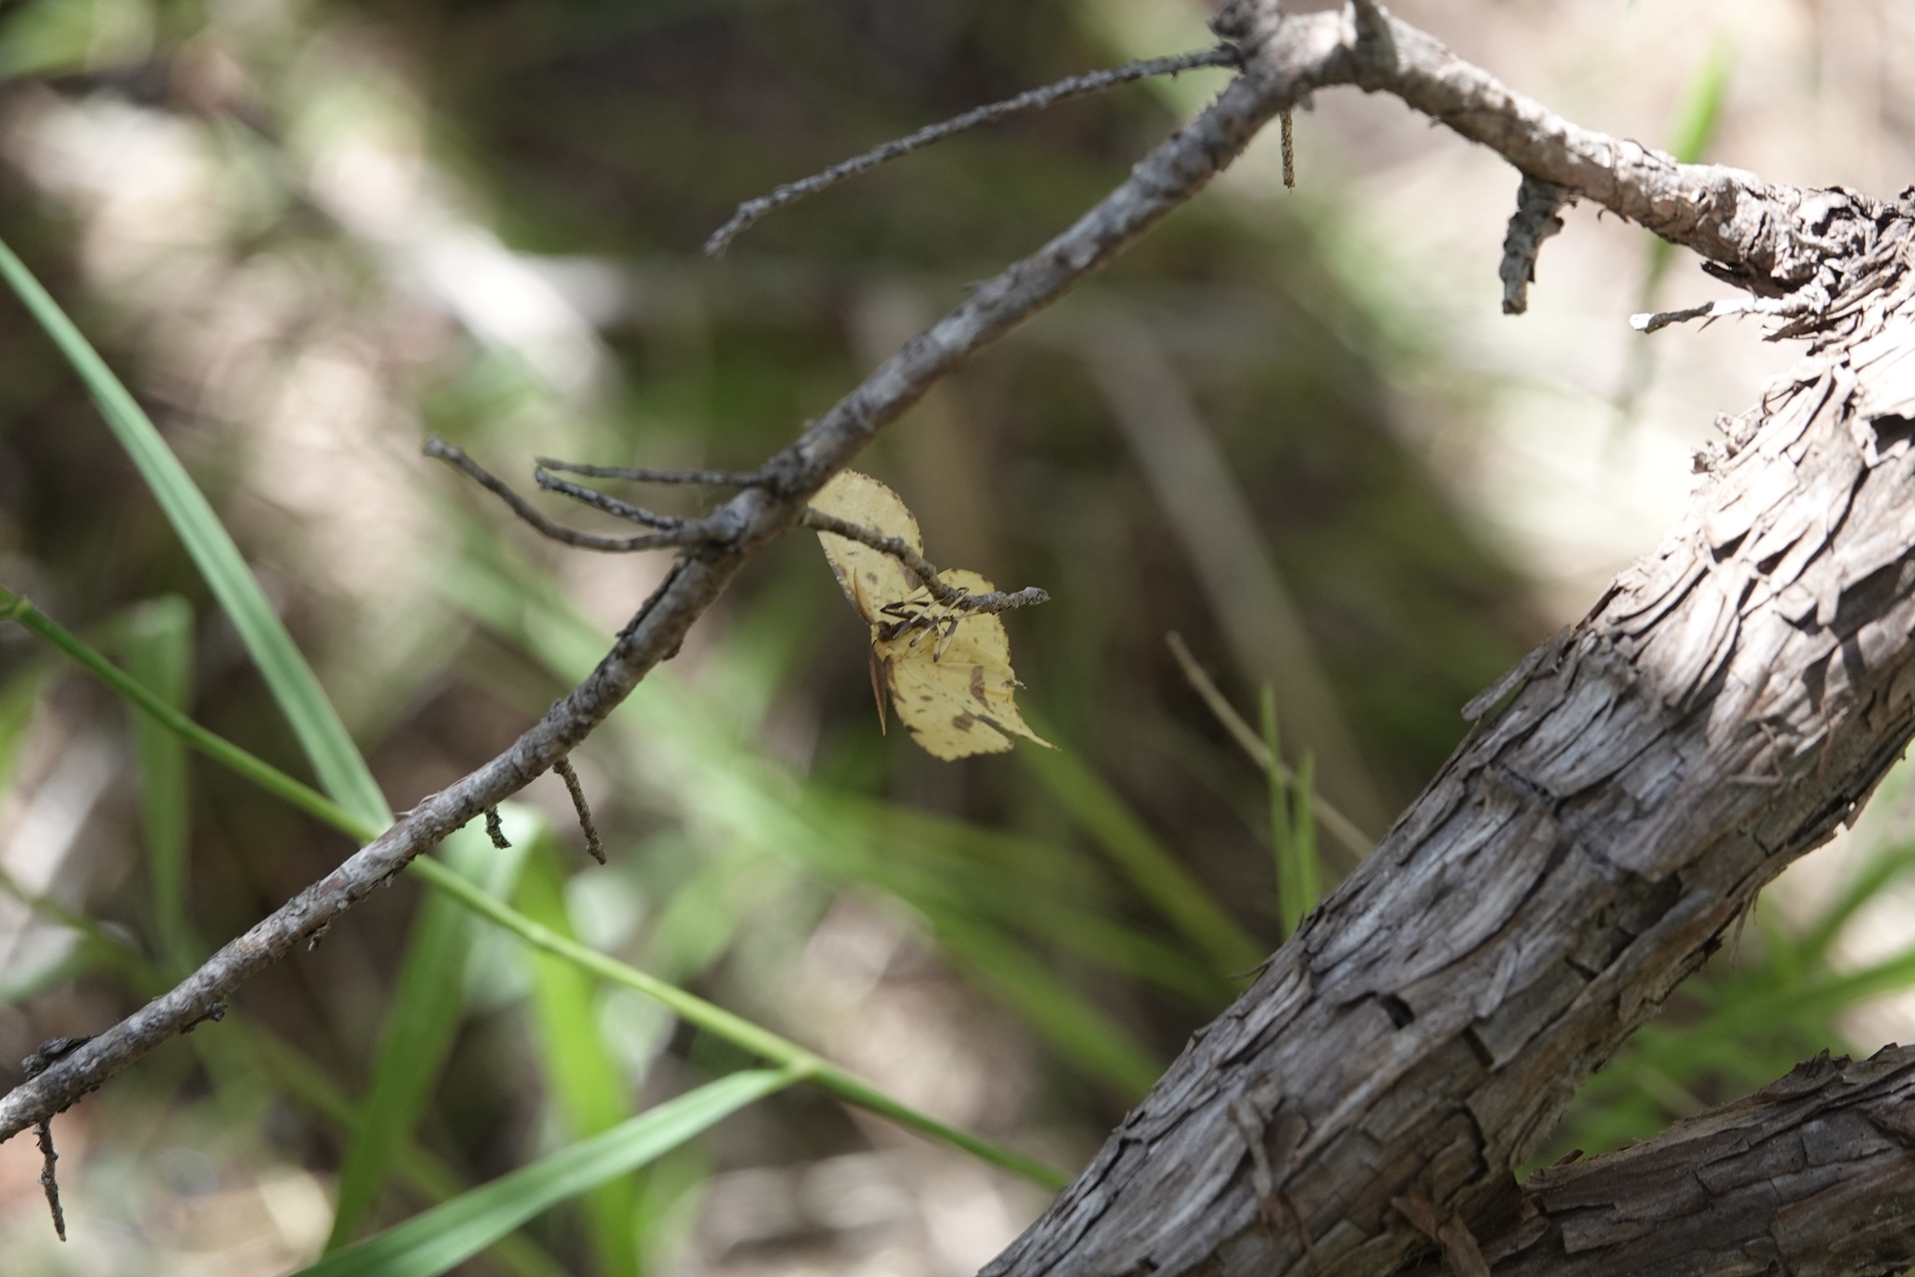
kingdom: Animalia
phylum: Arthropoda
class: Insecta
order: Lepidoptera
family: Geometridae
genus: Xanthotype
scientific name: Xanthotype
